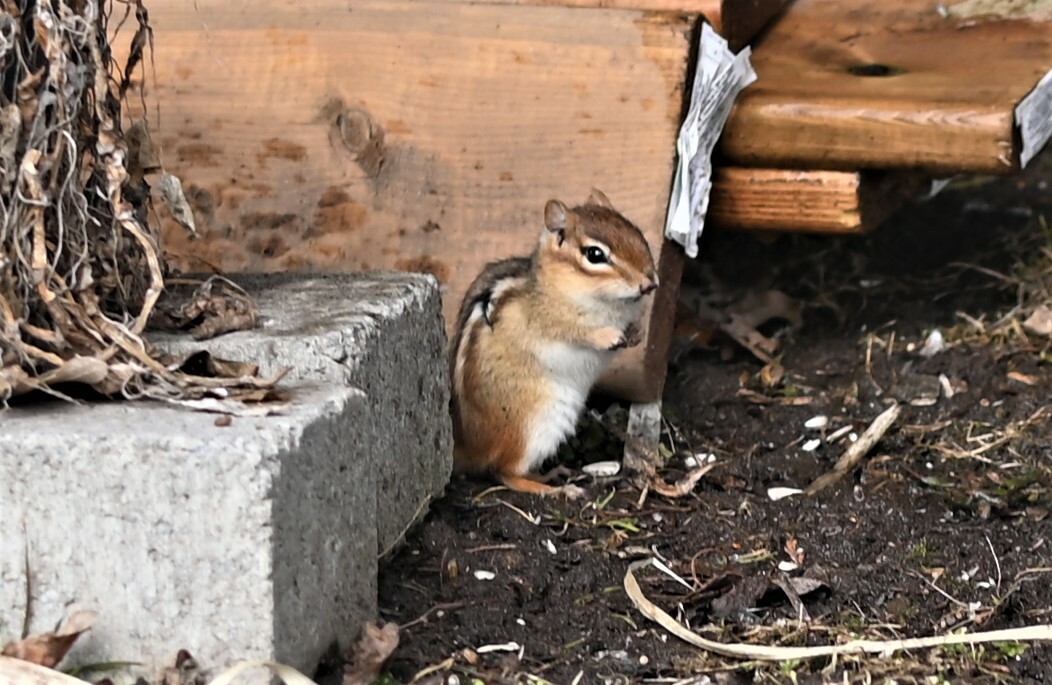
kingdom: Animalia
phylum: Chordata
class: Mammalia
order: Rodentia
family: Sciuridae
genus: Tamias
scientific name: Tamias striatus
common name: Eastern chipmunk
